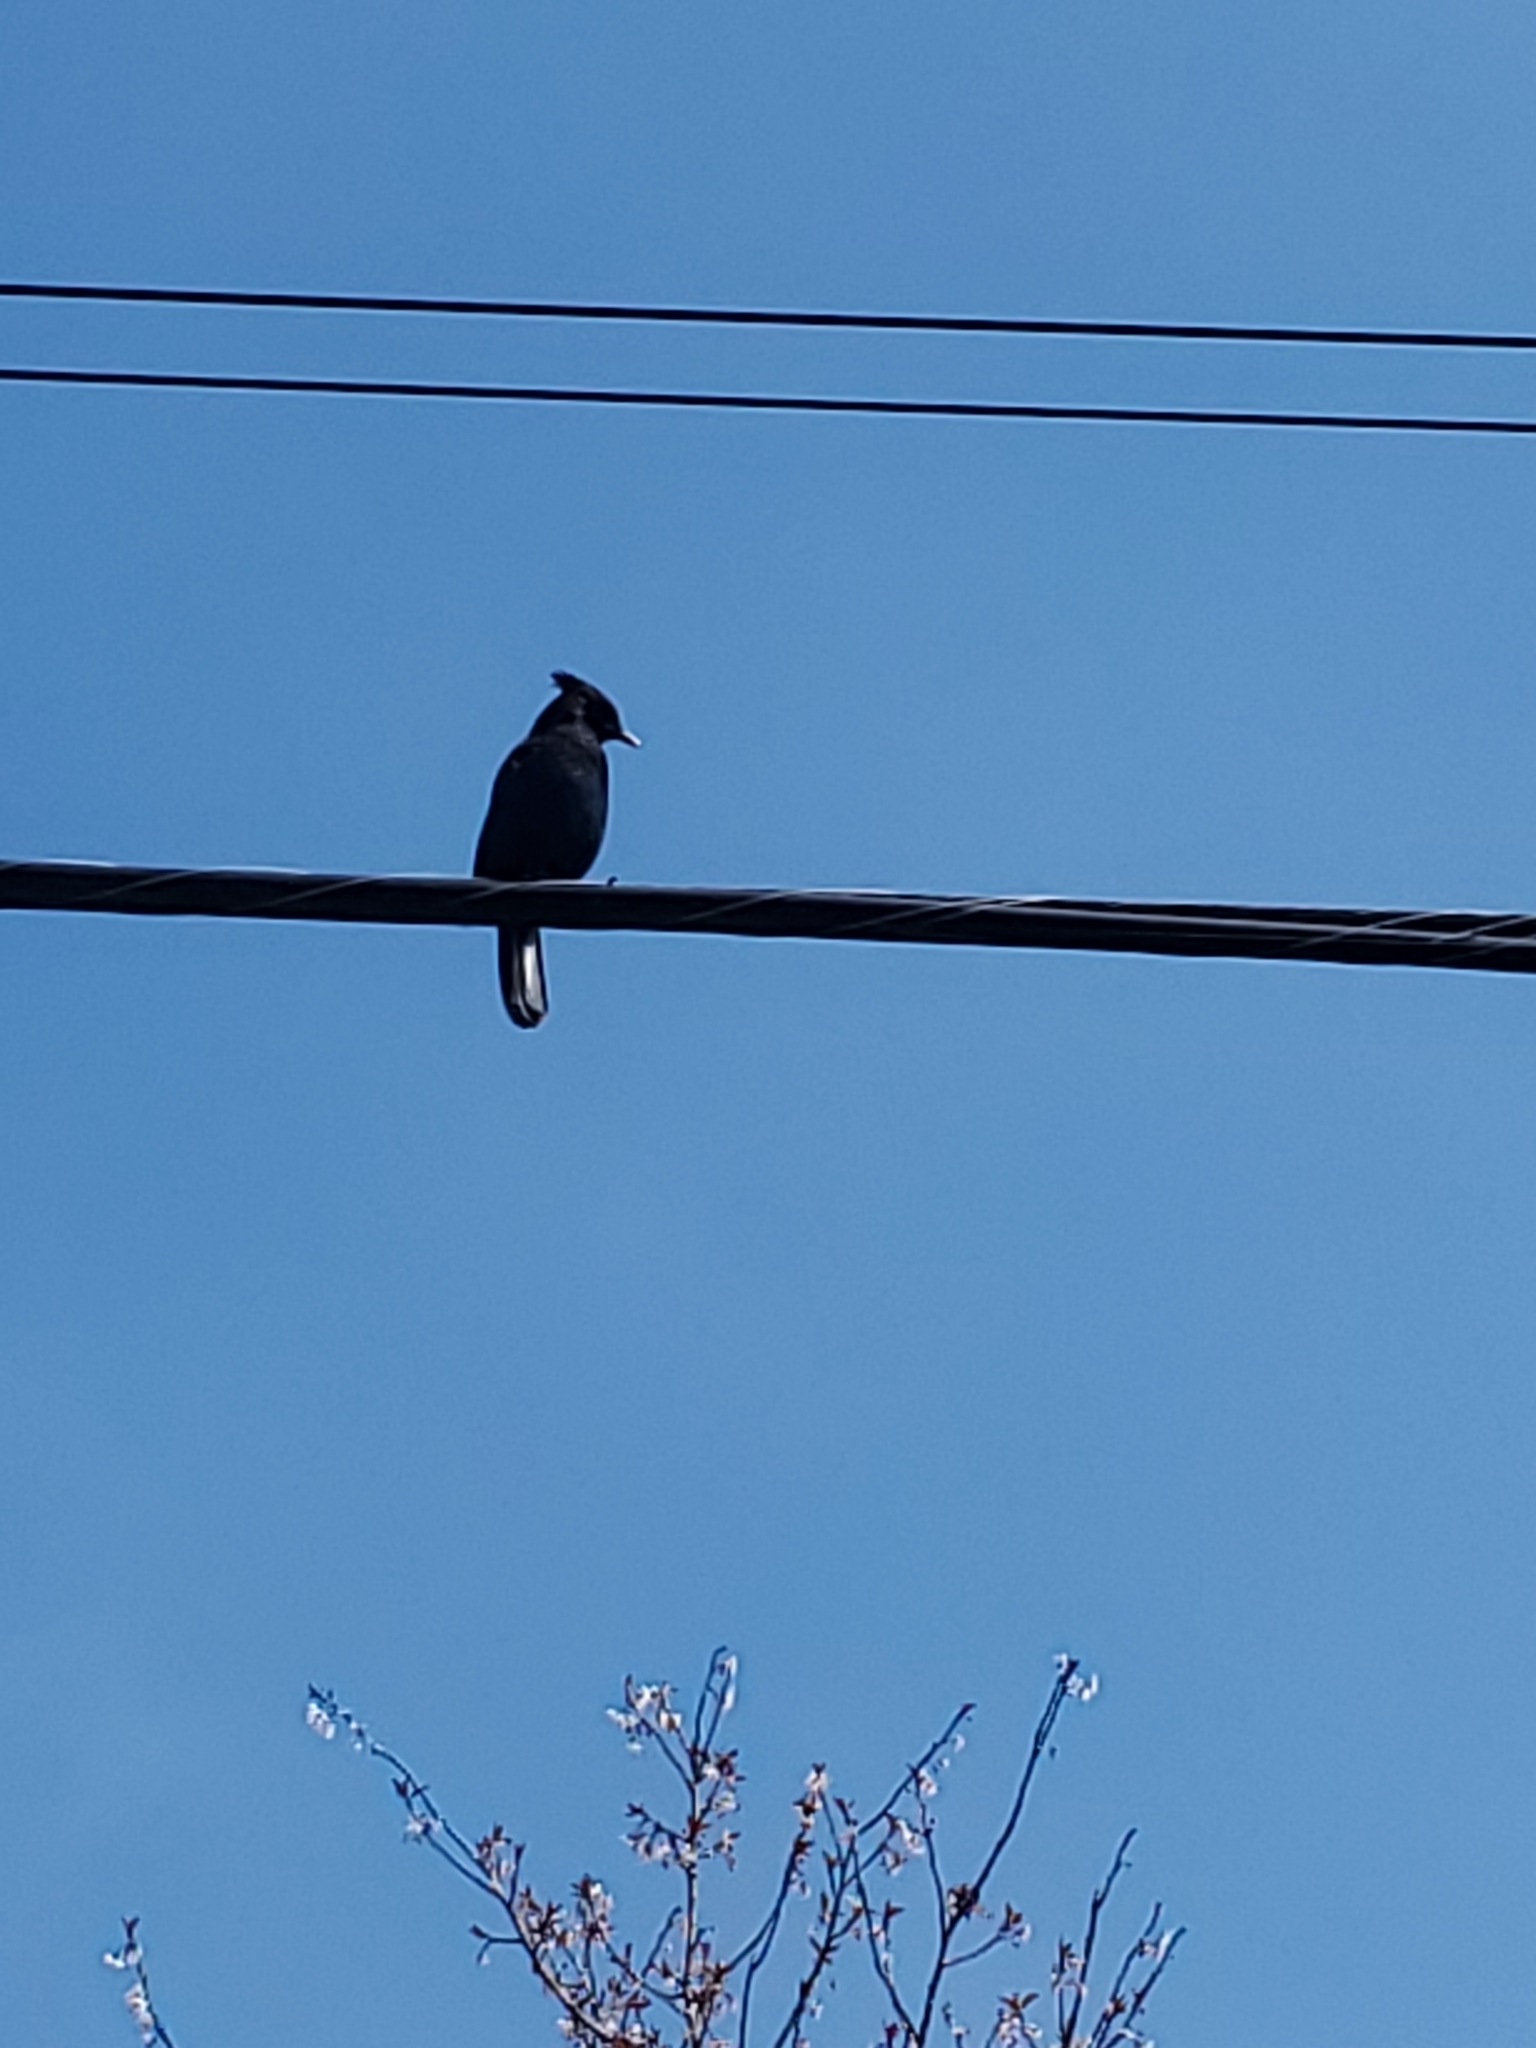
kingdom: Animalia
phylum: Chordata
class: Aves
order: Passeriformes
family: Corvidae
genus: Cyanocitta
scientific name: Cyanocitta stelleri
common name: Steller's jay
